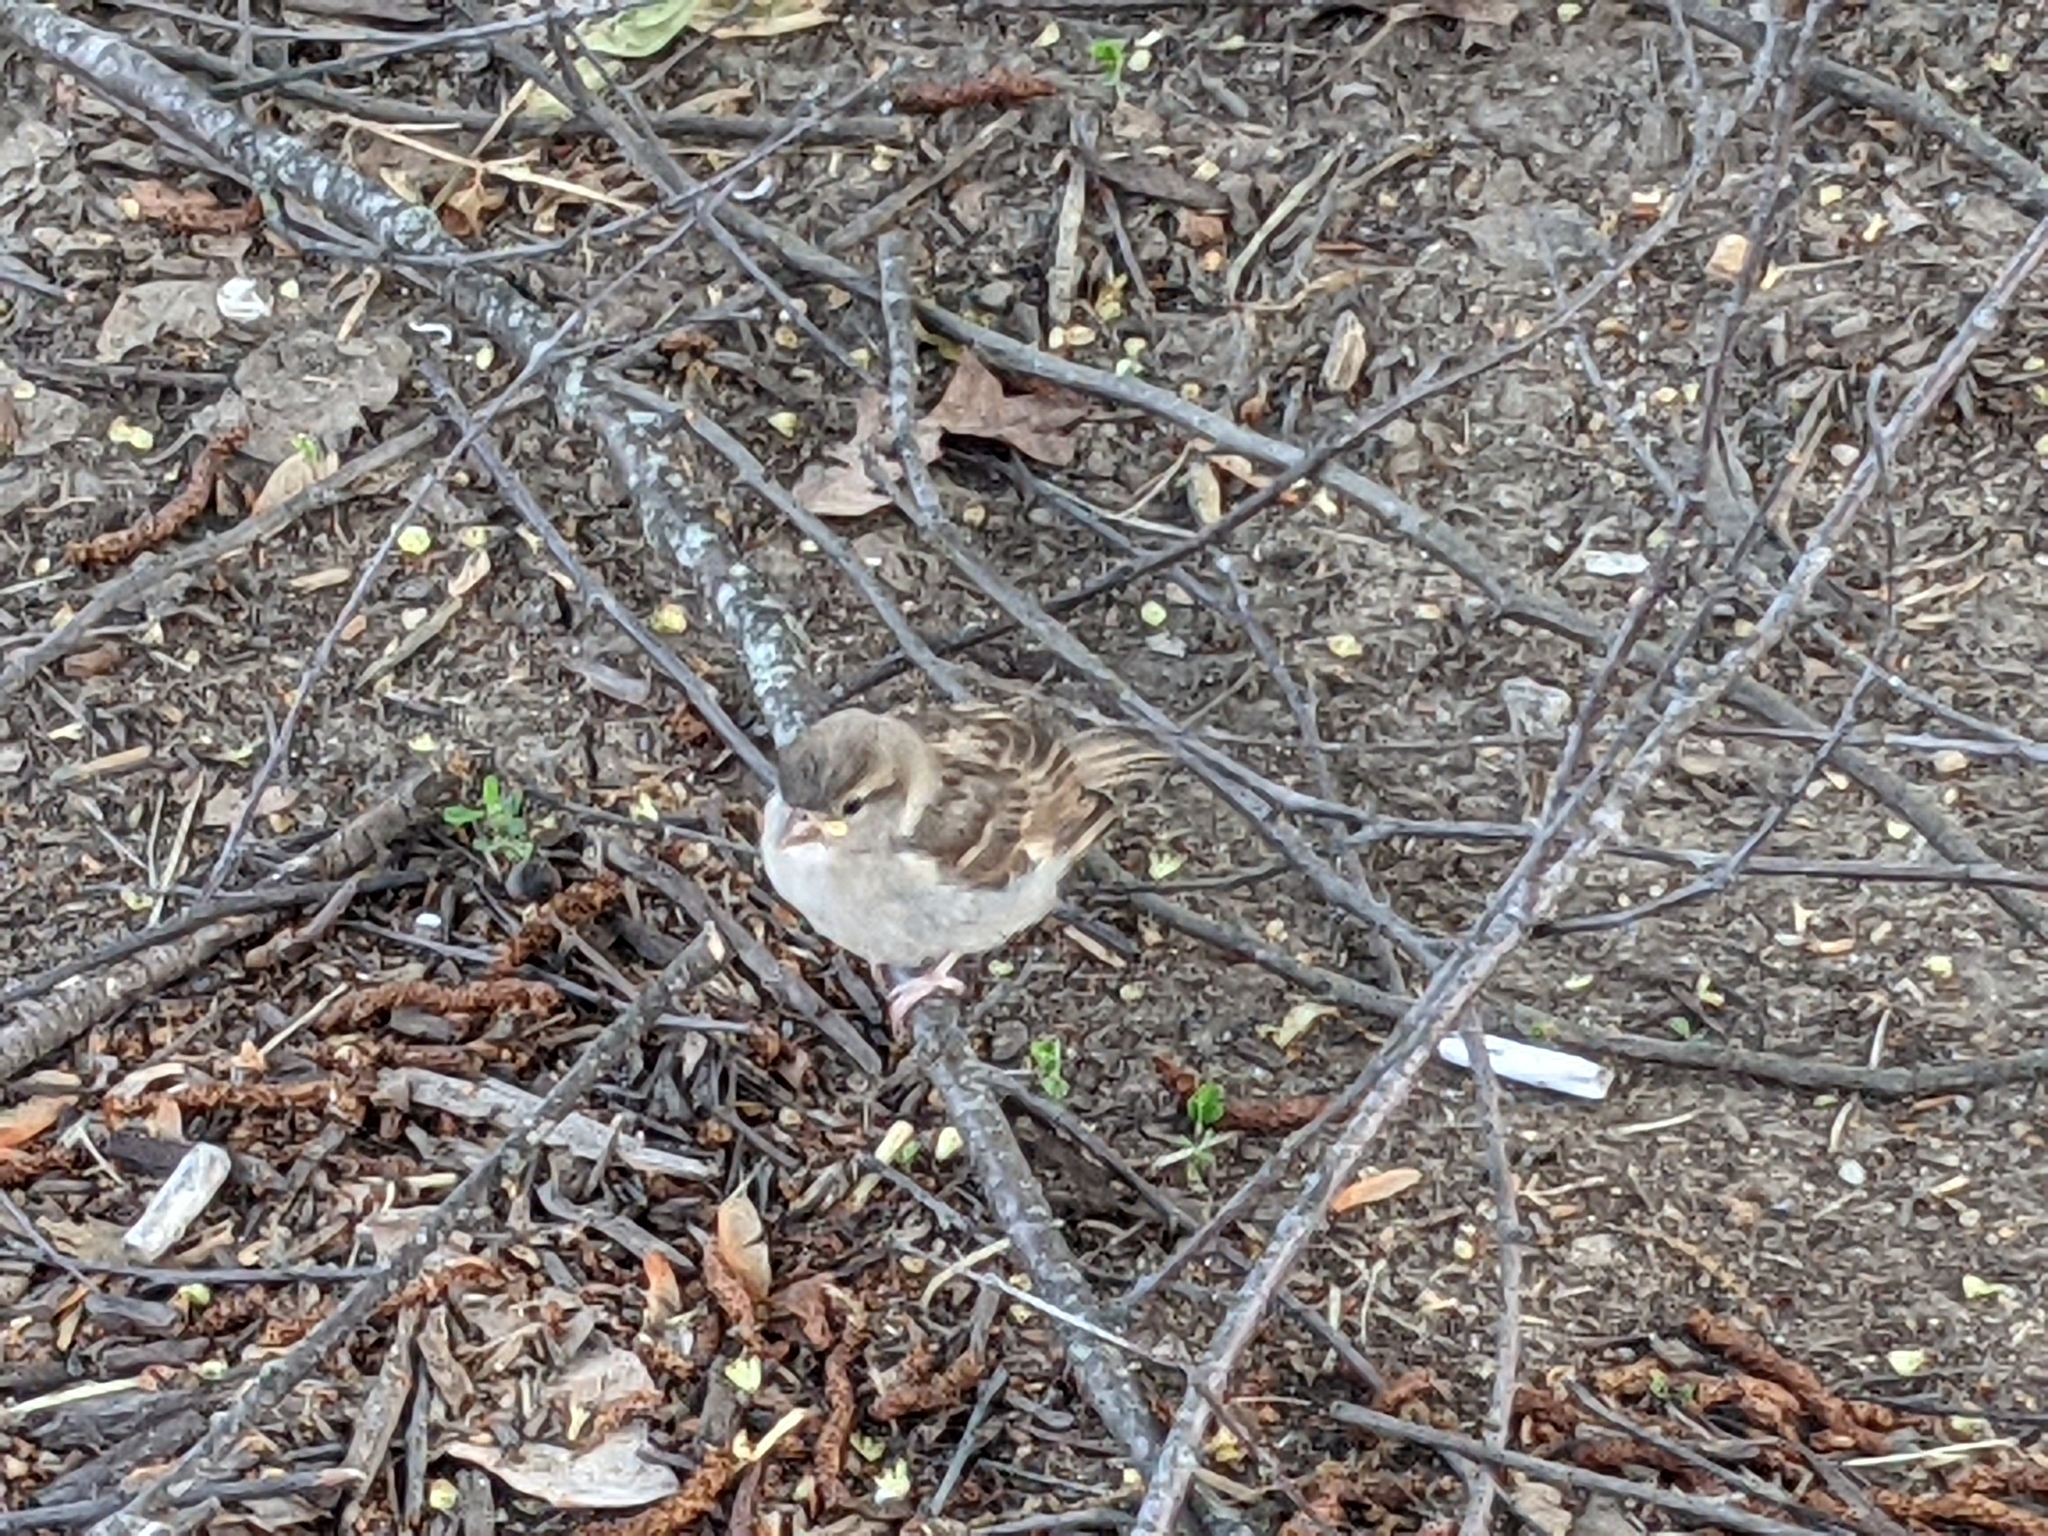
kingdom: Animalia
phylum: Chordata
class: Aves
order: Passeriformes
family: Passeridae
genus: Passer
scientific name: Passer domesticus
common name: House sparrow
